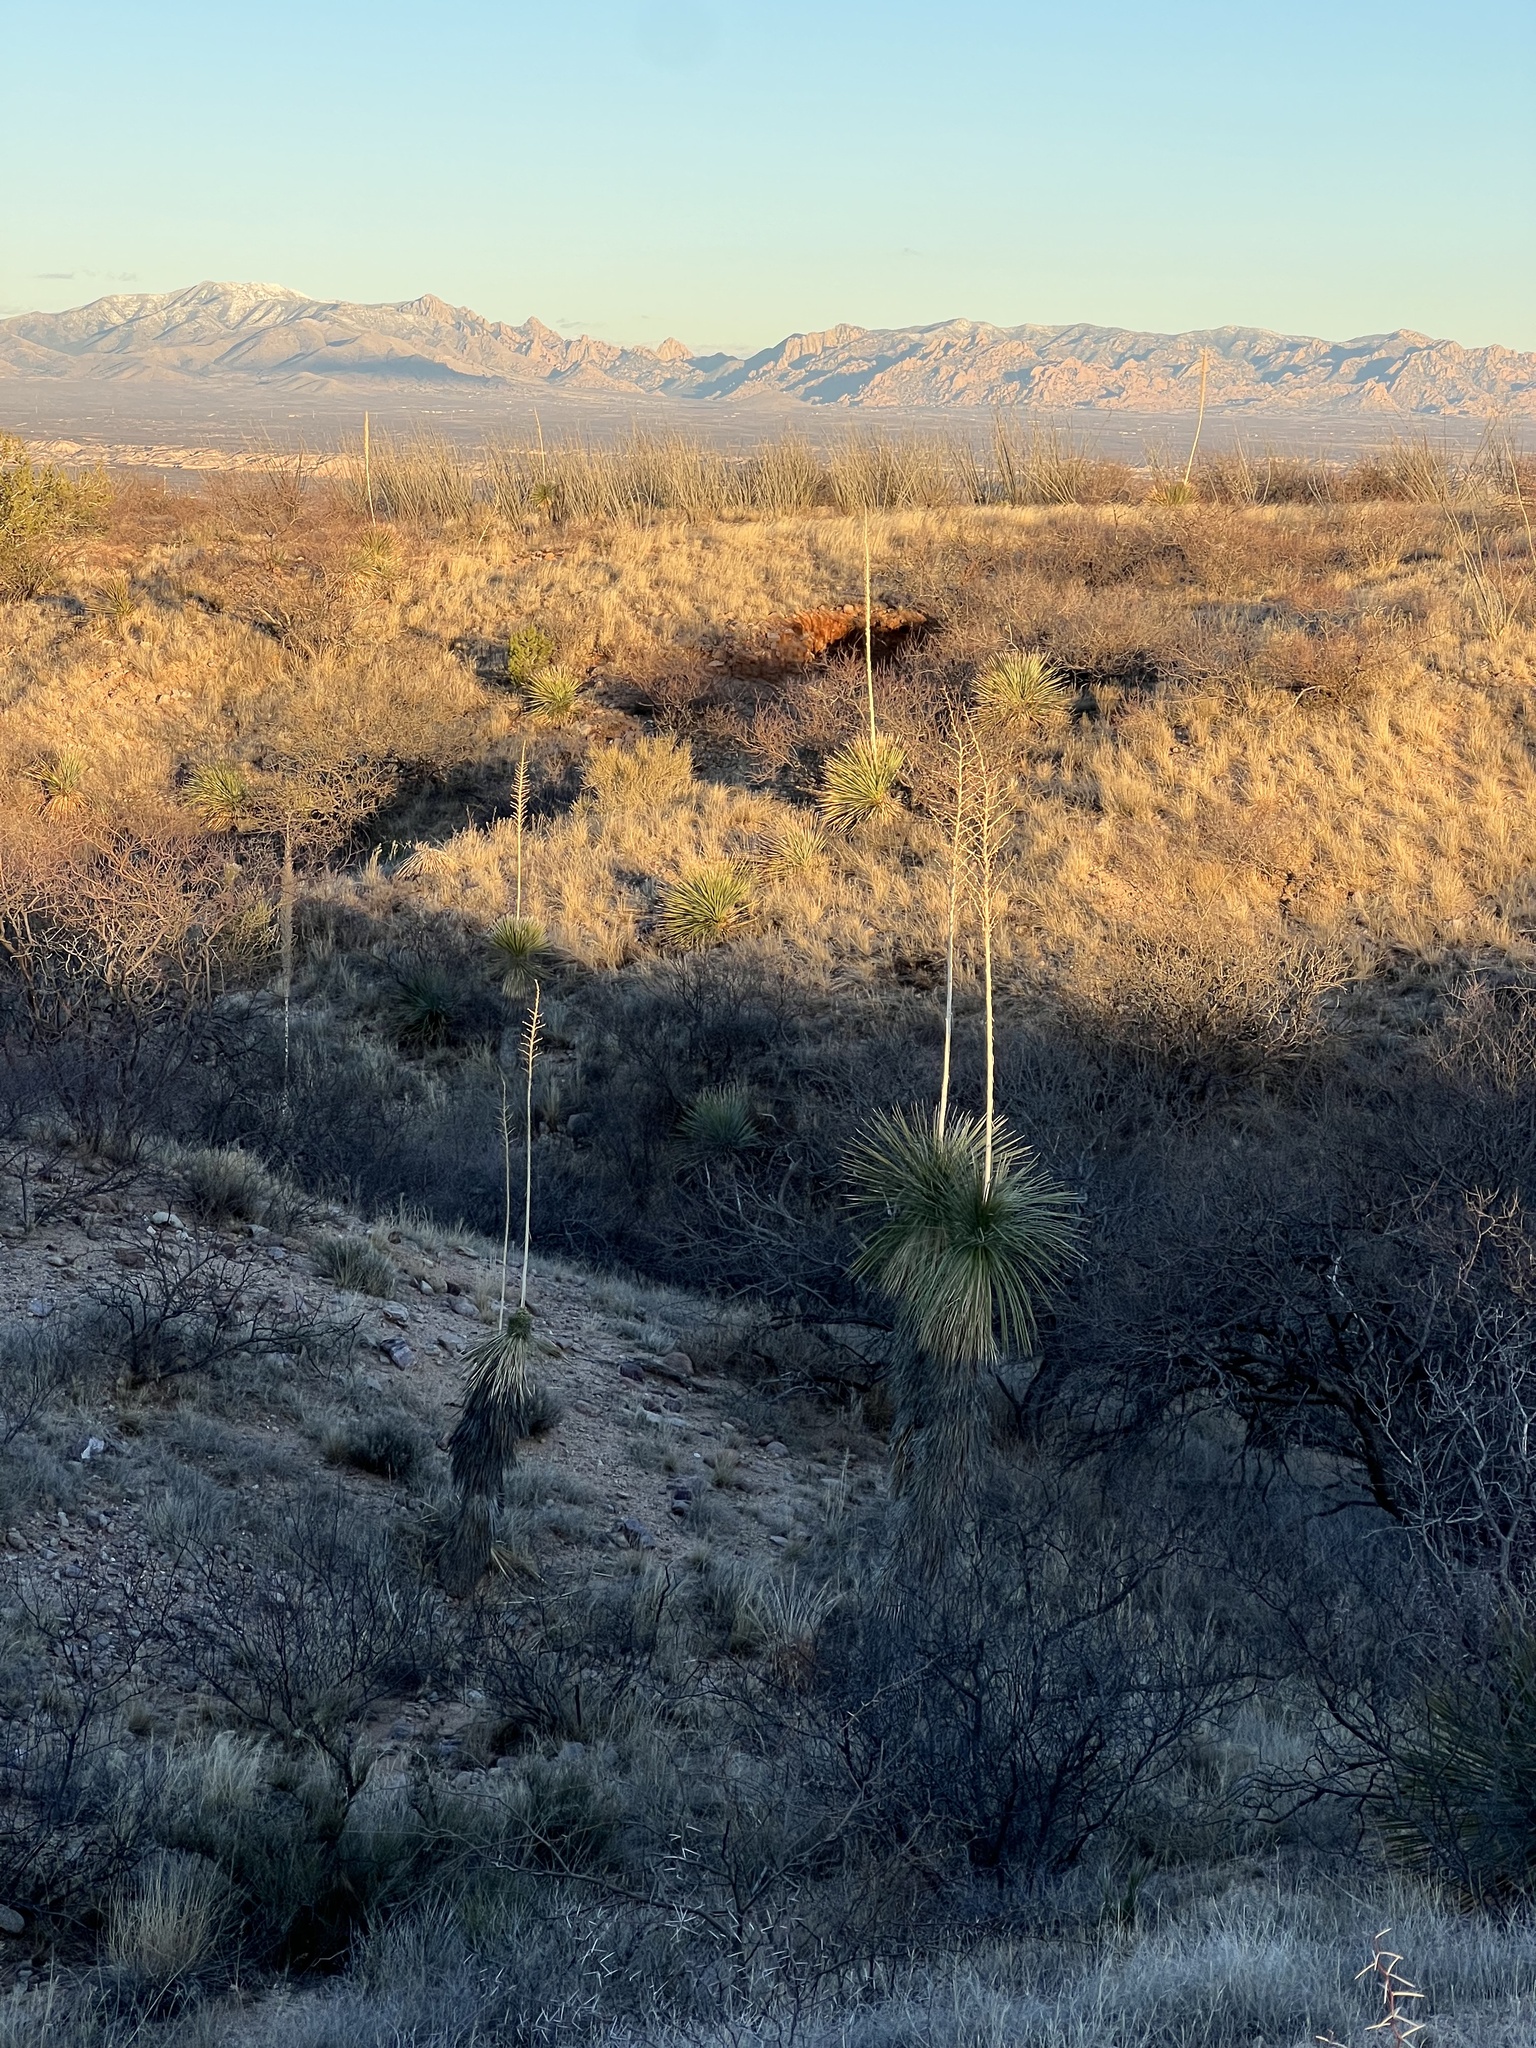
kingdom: Plantae
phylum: Tracheophyta
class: Liliopsida
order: Asparagales
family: Asparagaceae
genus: Yucca
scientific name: Yucca elata
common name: Palmella
